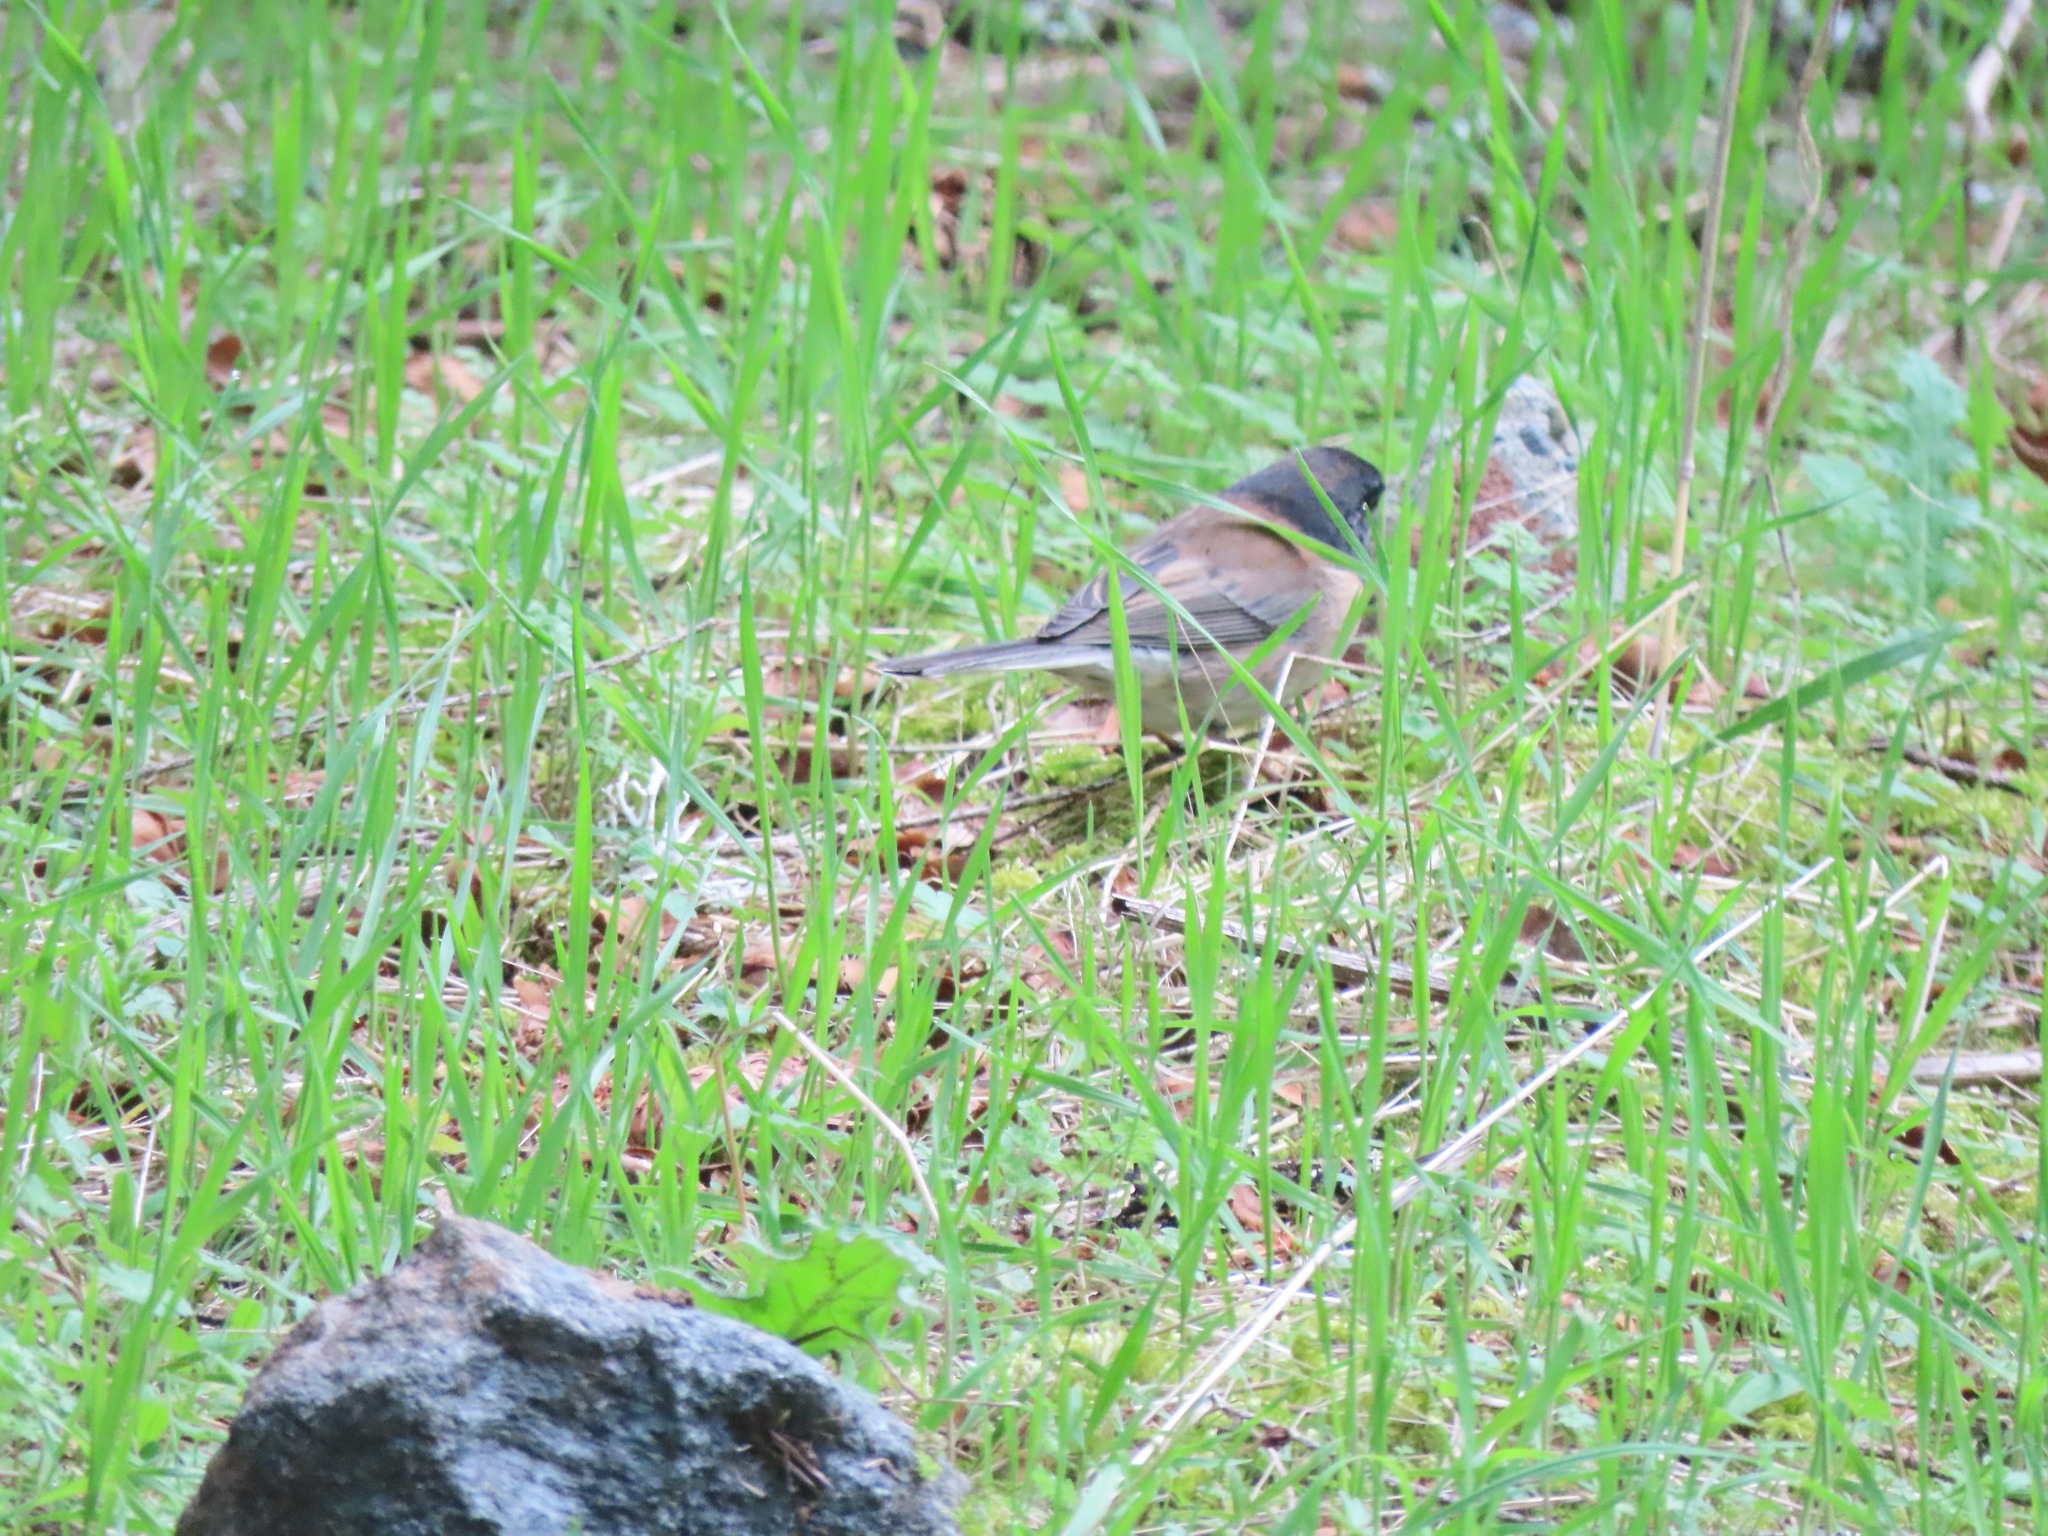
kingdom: Animalia
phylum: Chordata
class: Aves
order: Passeriformes
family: Passerellidae
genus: Junco
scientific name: Junco hyemalis
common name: Dark-eyed junco
